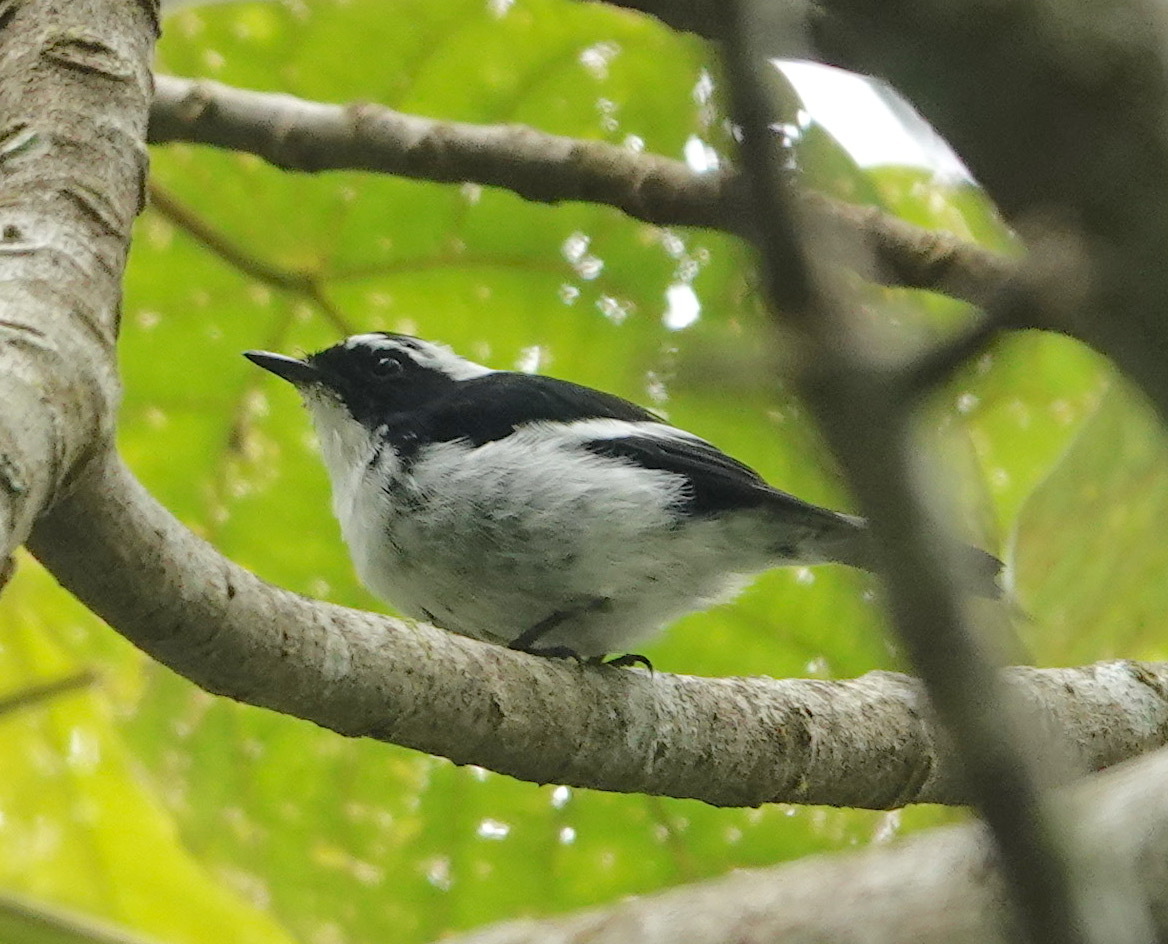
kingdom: Animalia
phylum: Chordata
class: Aves
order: Passeriformes
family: Muscicapidae
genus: Ficedula
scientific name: Ficedula westermanni
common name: Little pied flycatcher
